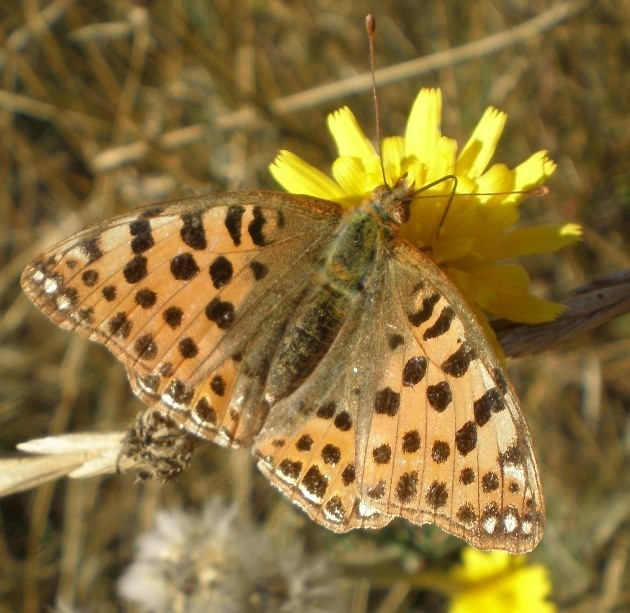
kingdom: Animalia
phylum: Arthropoda
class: Insecta
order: Lepidoptera
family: Nymphalidae
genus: Issoria
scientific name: Issoria lathonia
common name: Queen of spain fritillary
